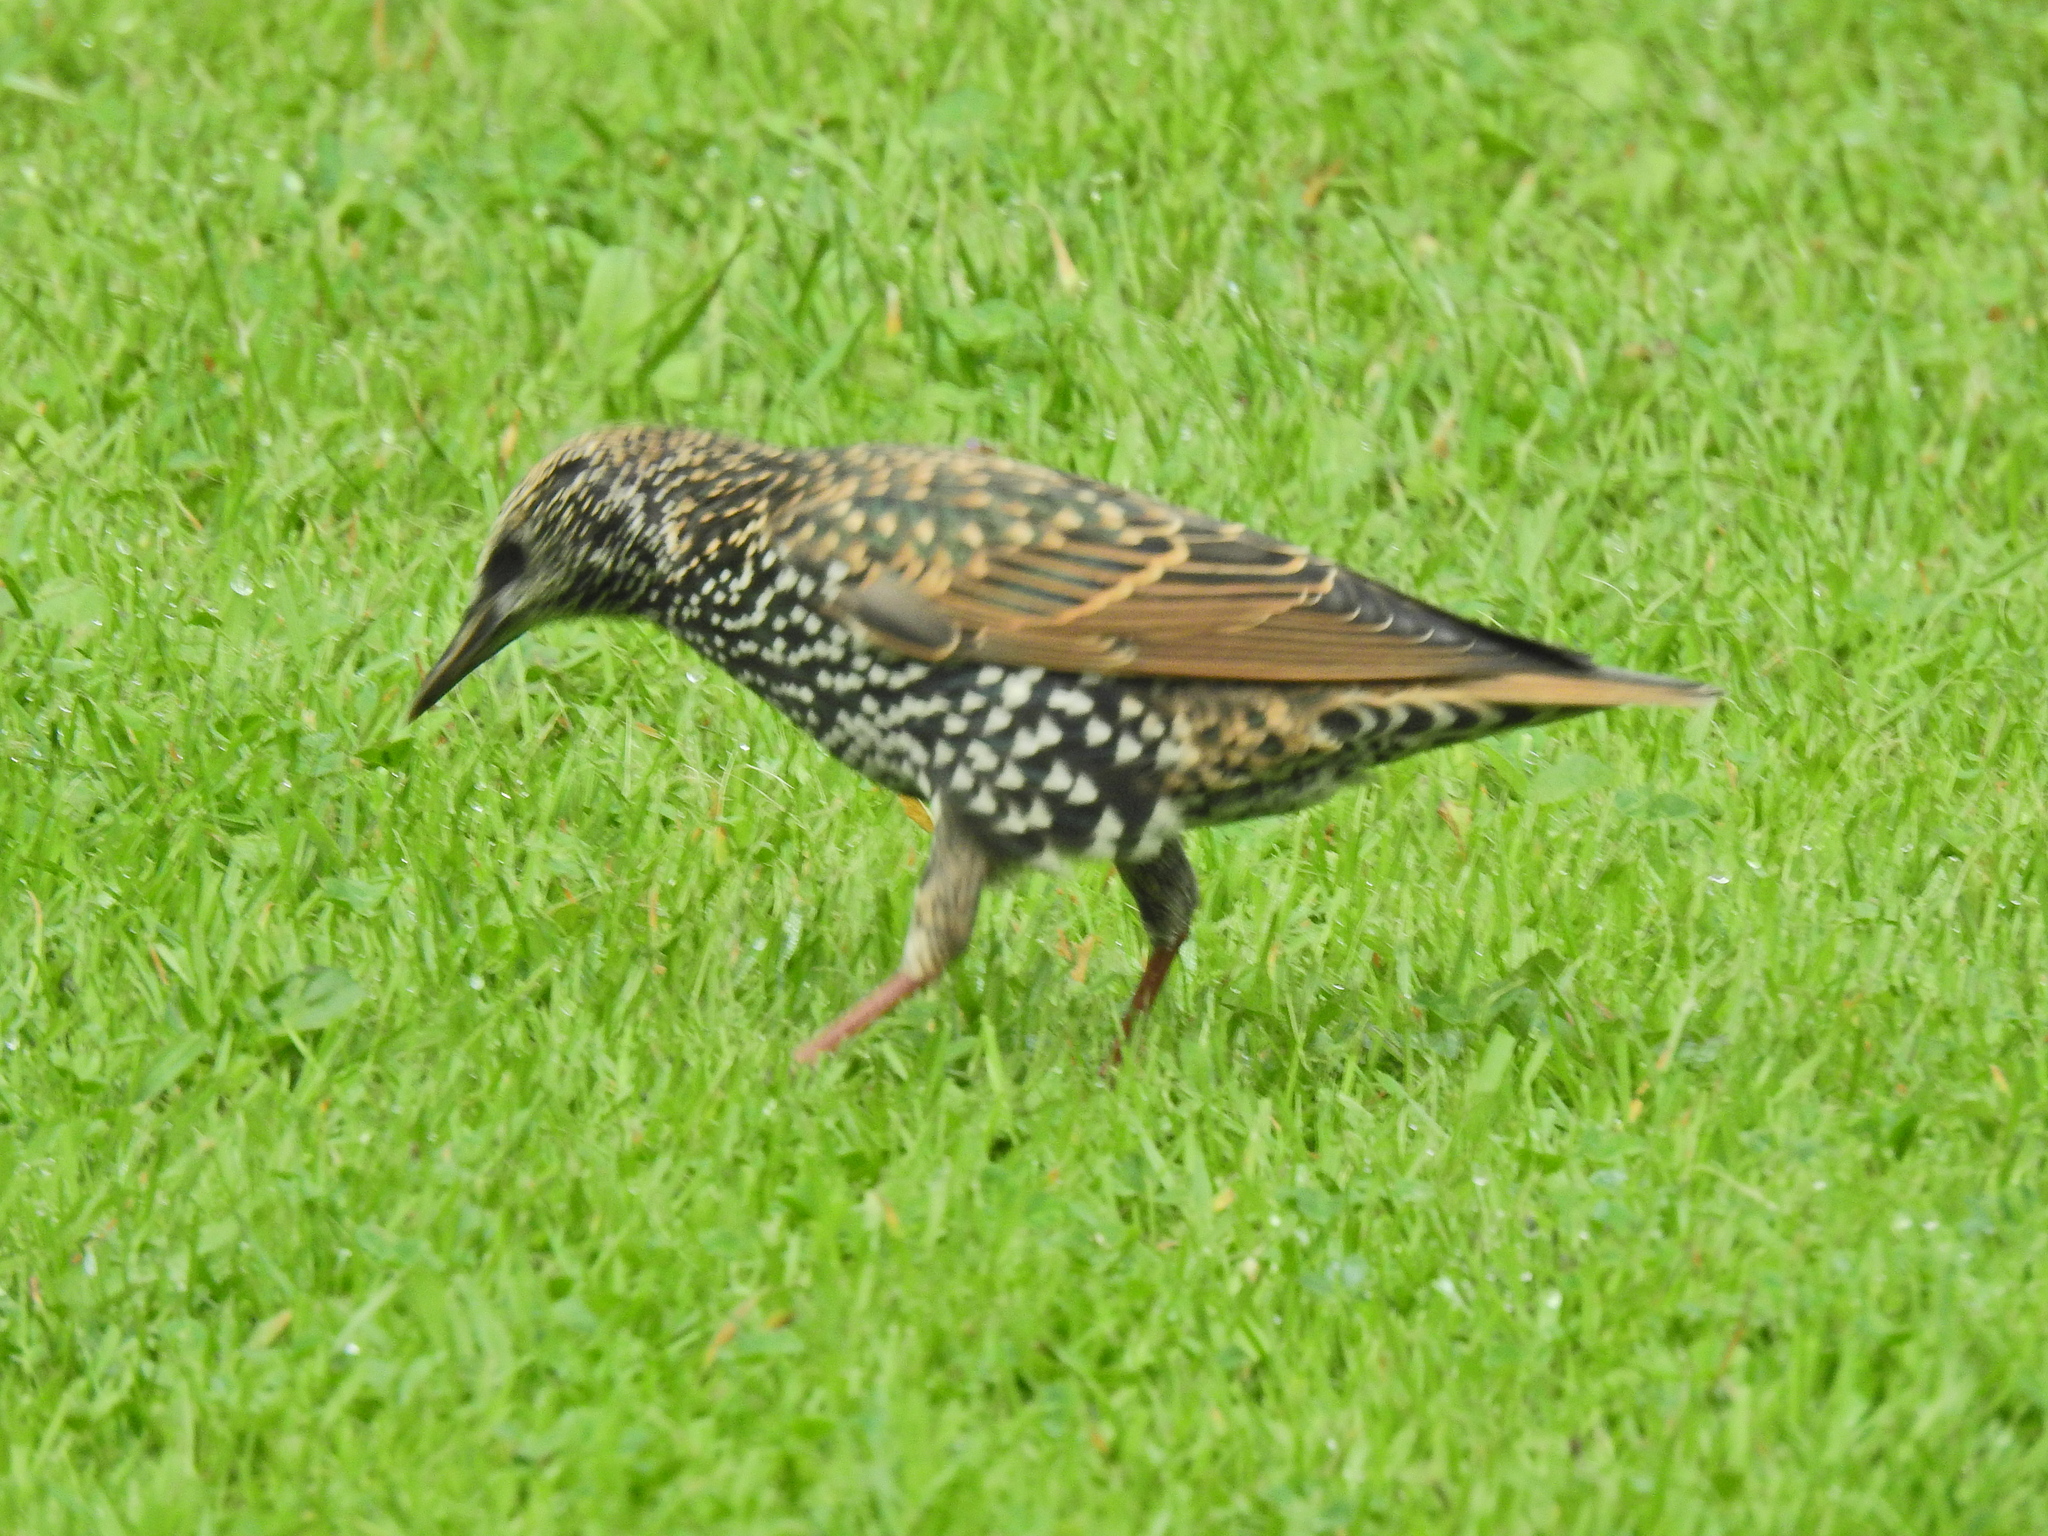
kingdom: Animalia
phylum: Chordata
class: Aves
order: Passeriformes
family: Sturnidae
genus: Sturnus
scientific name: Sturnus vulgaris
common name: Common starling
